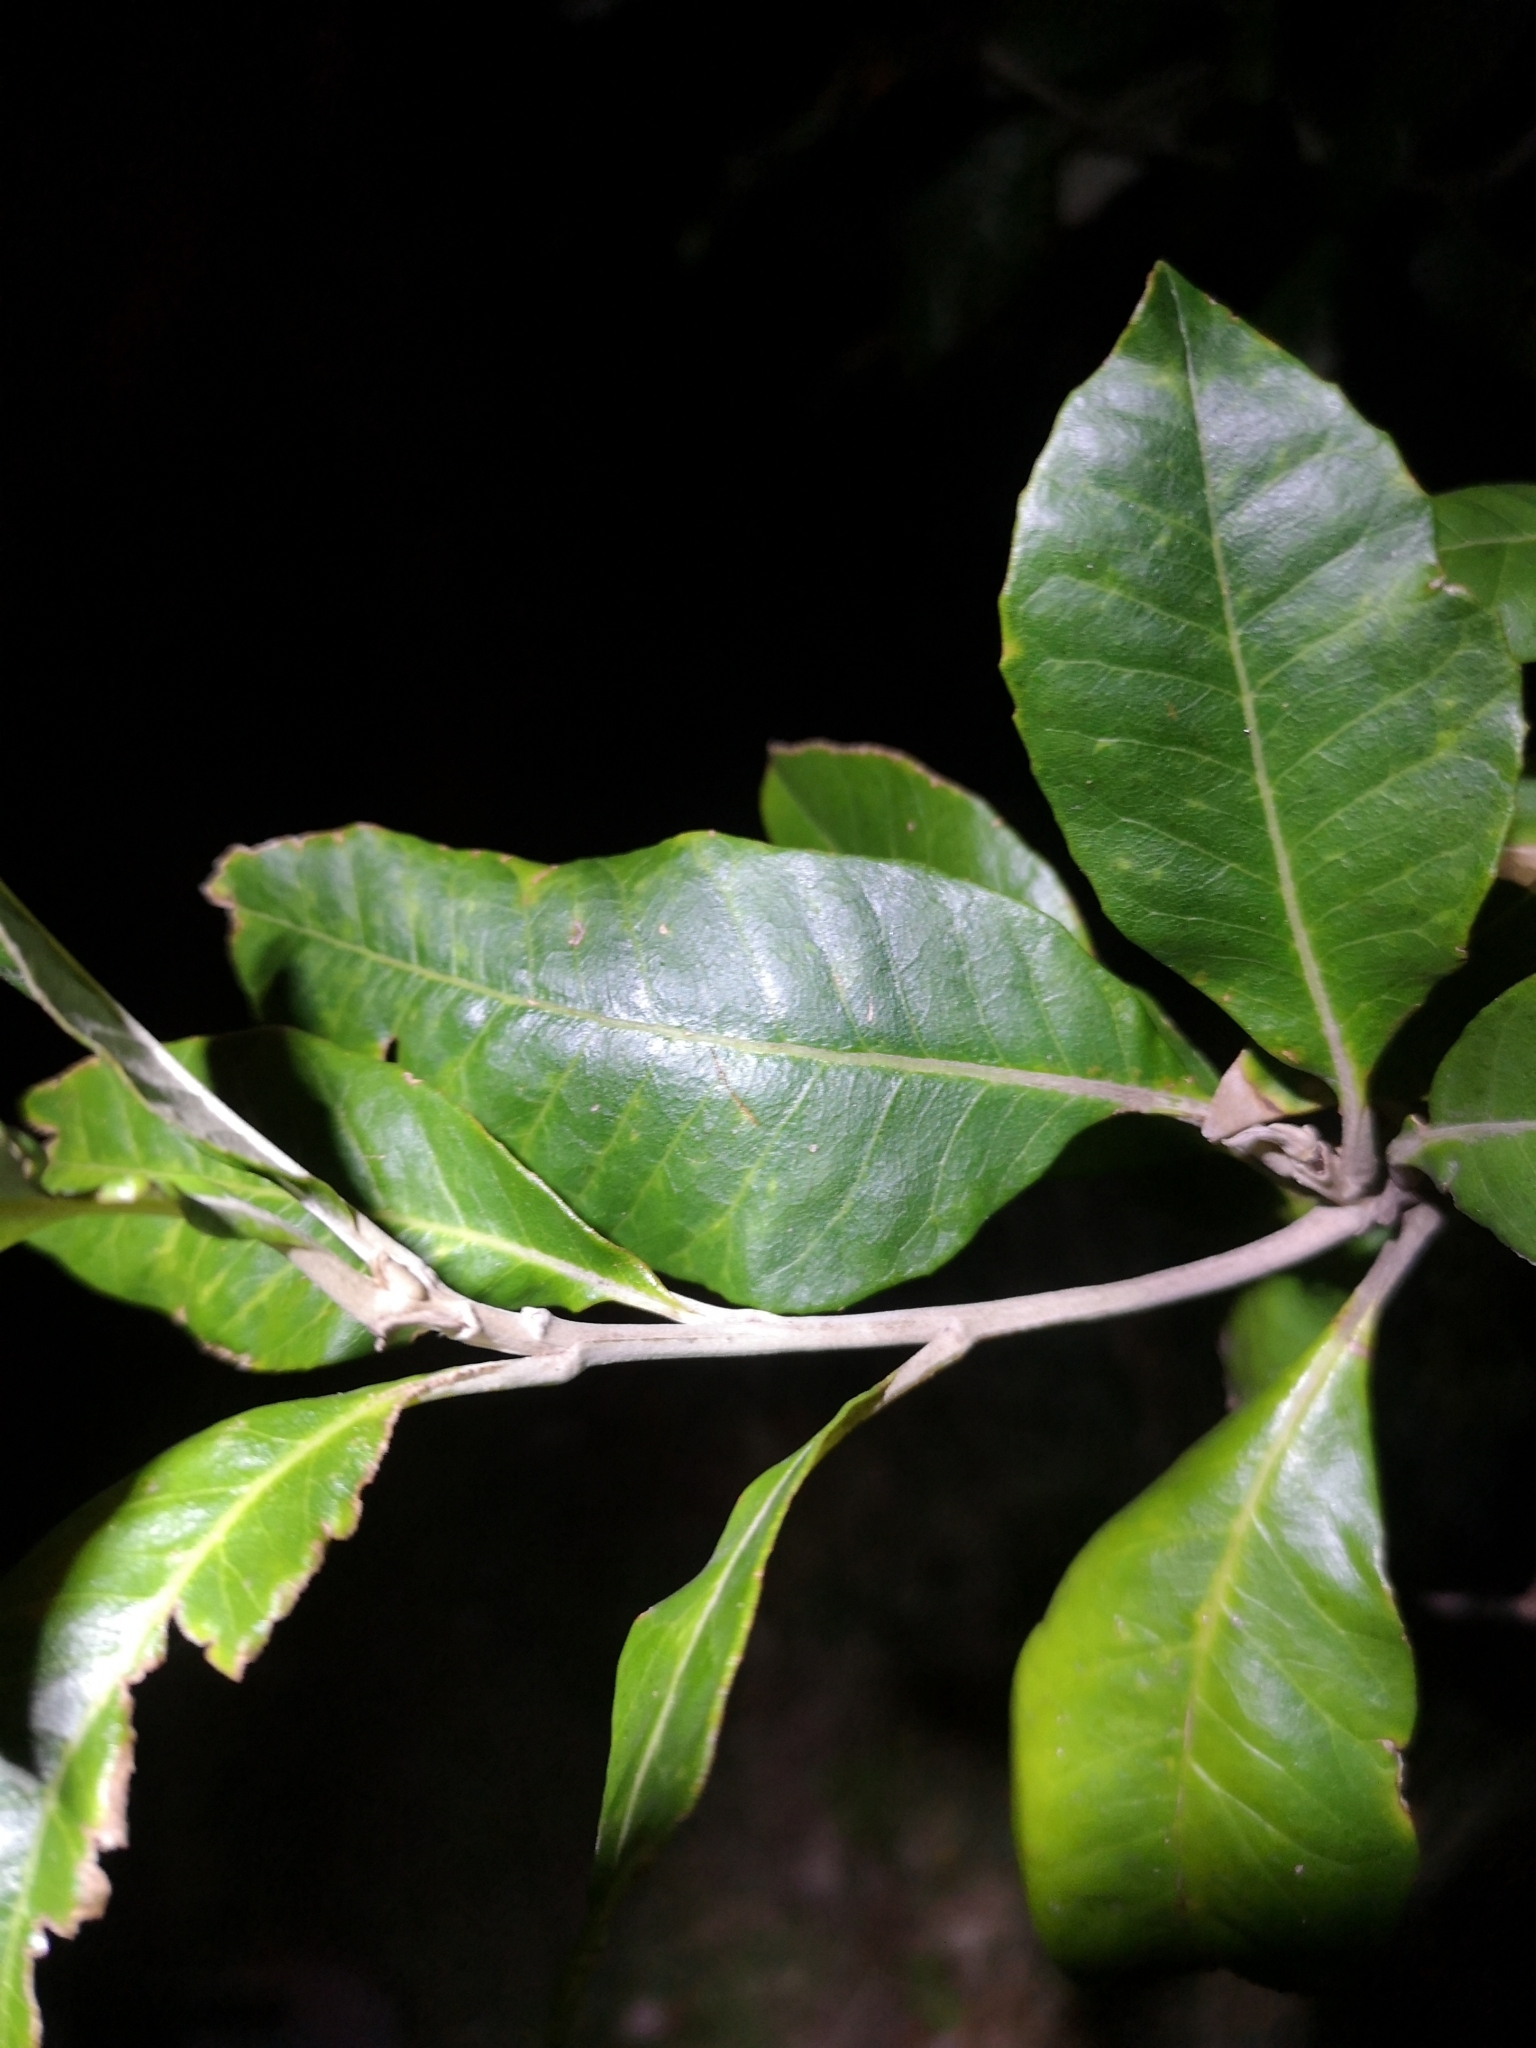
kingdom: Plantae
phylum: Tracheophyta
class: Magnoliopsida
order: Asterales
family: Asteraceae
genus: Olearia
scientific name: Olearia avicenniifolia
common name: Mangrove-leaf daisybush
